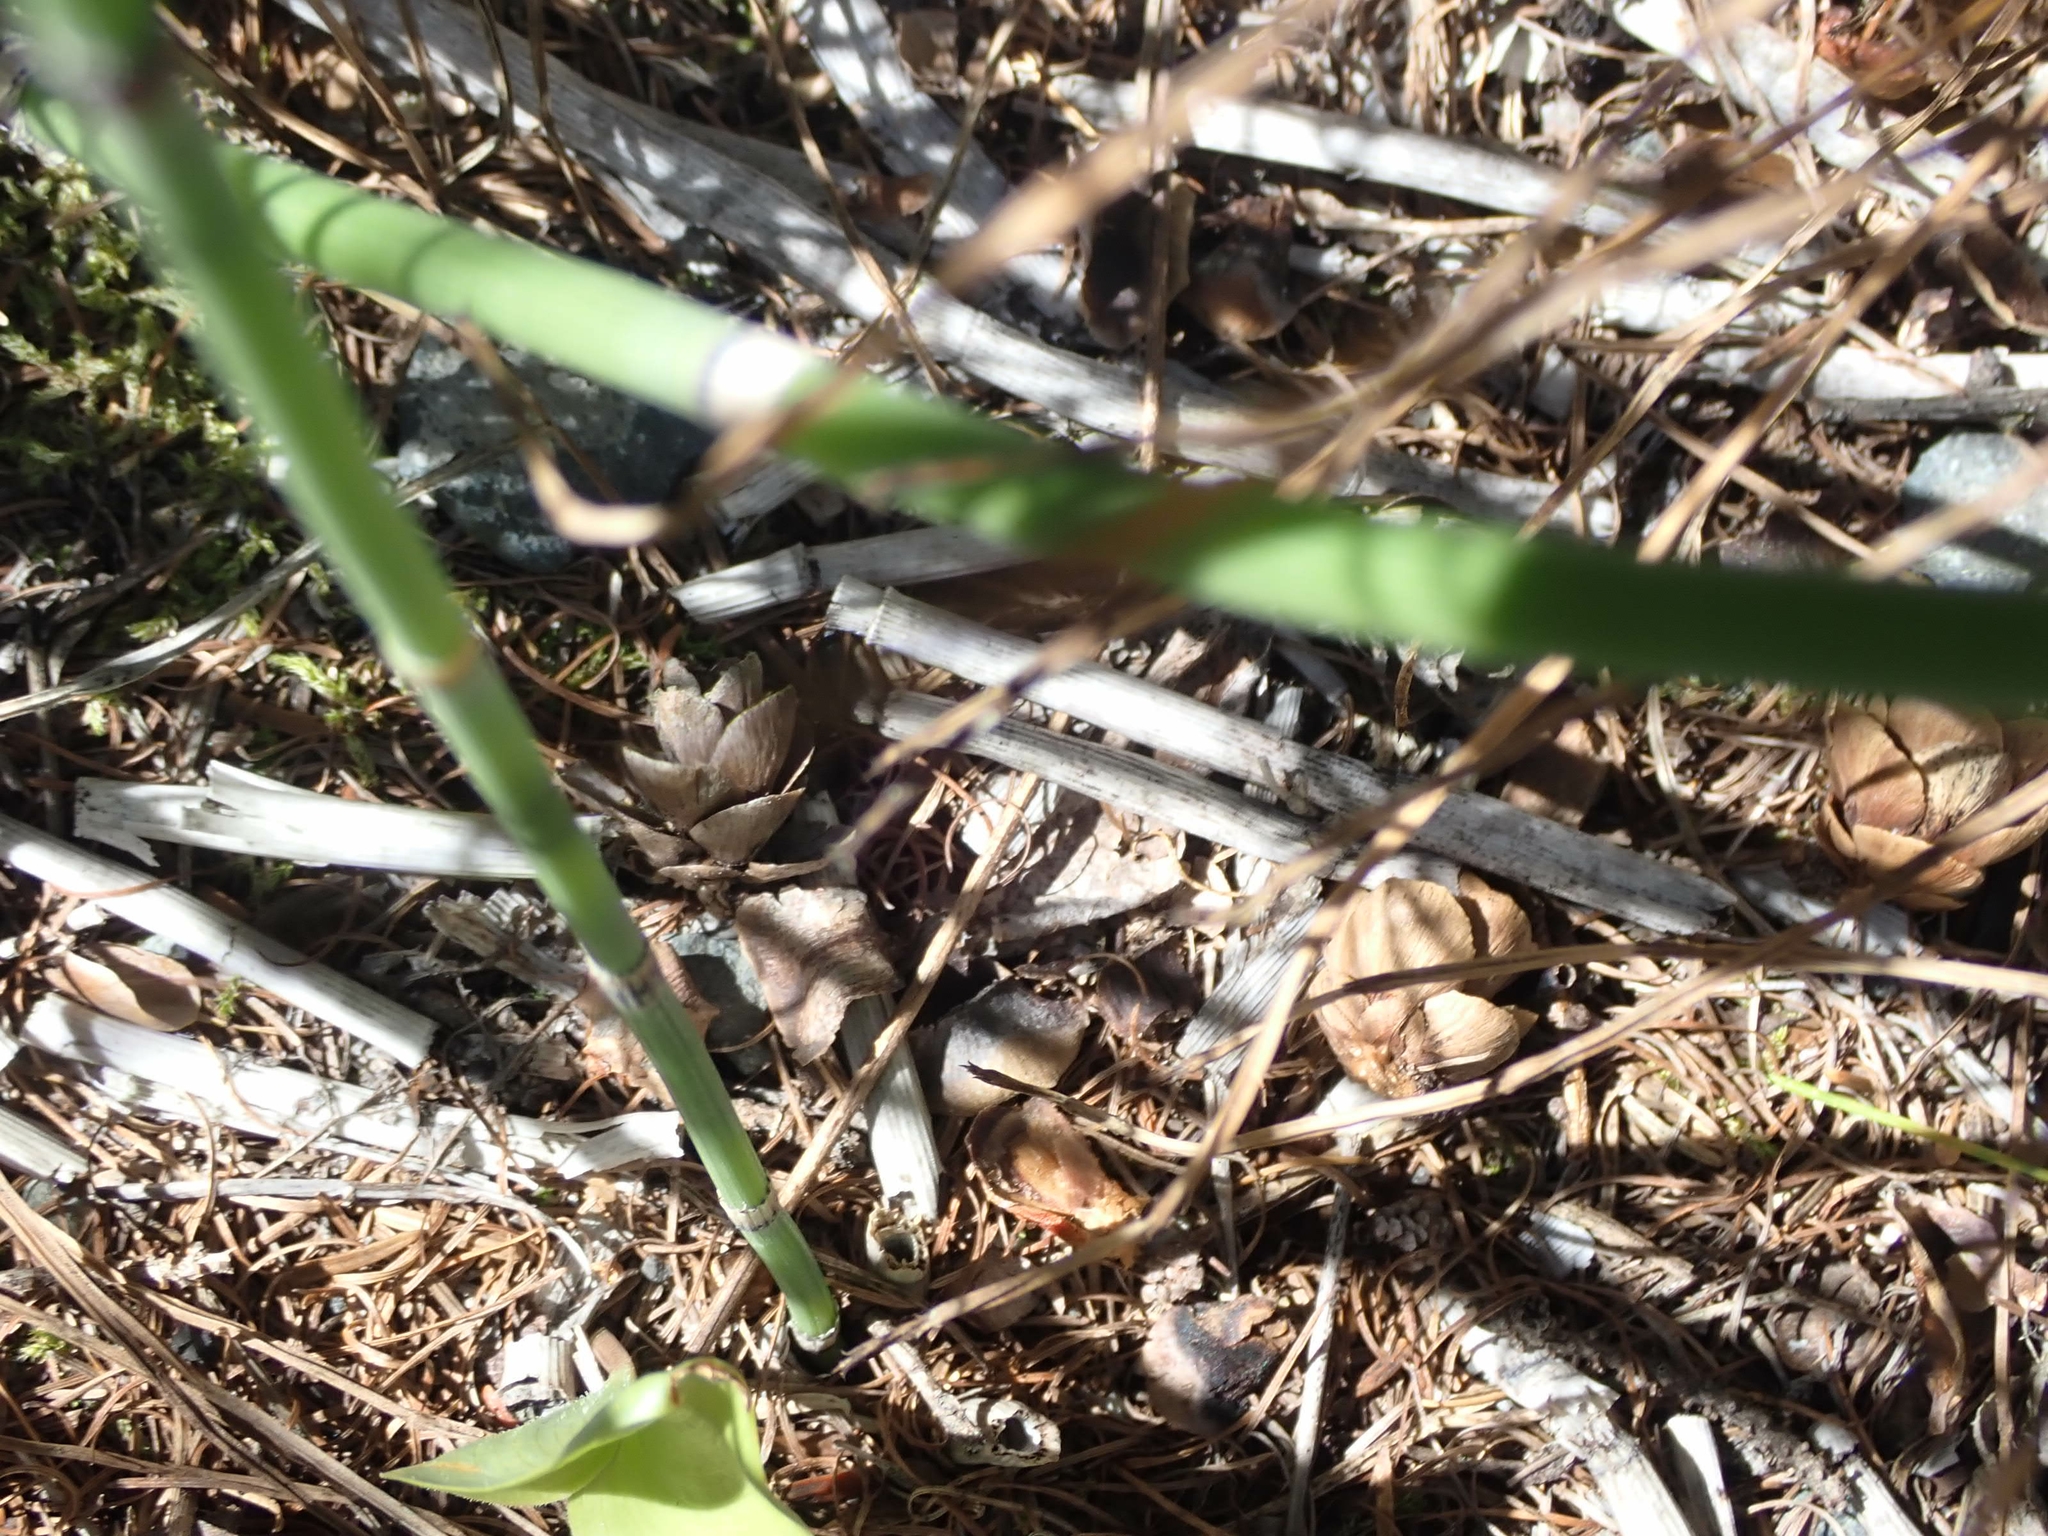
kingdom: Plantae
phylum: Tracheophyta
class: Polypodiopsida
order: Equisetales
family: Equisetaceae
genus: Equisetum
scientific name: Equisetum praealtum
